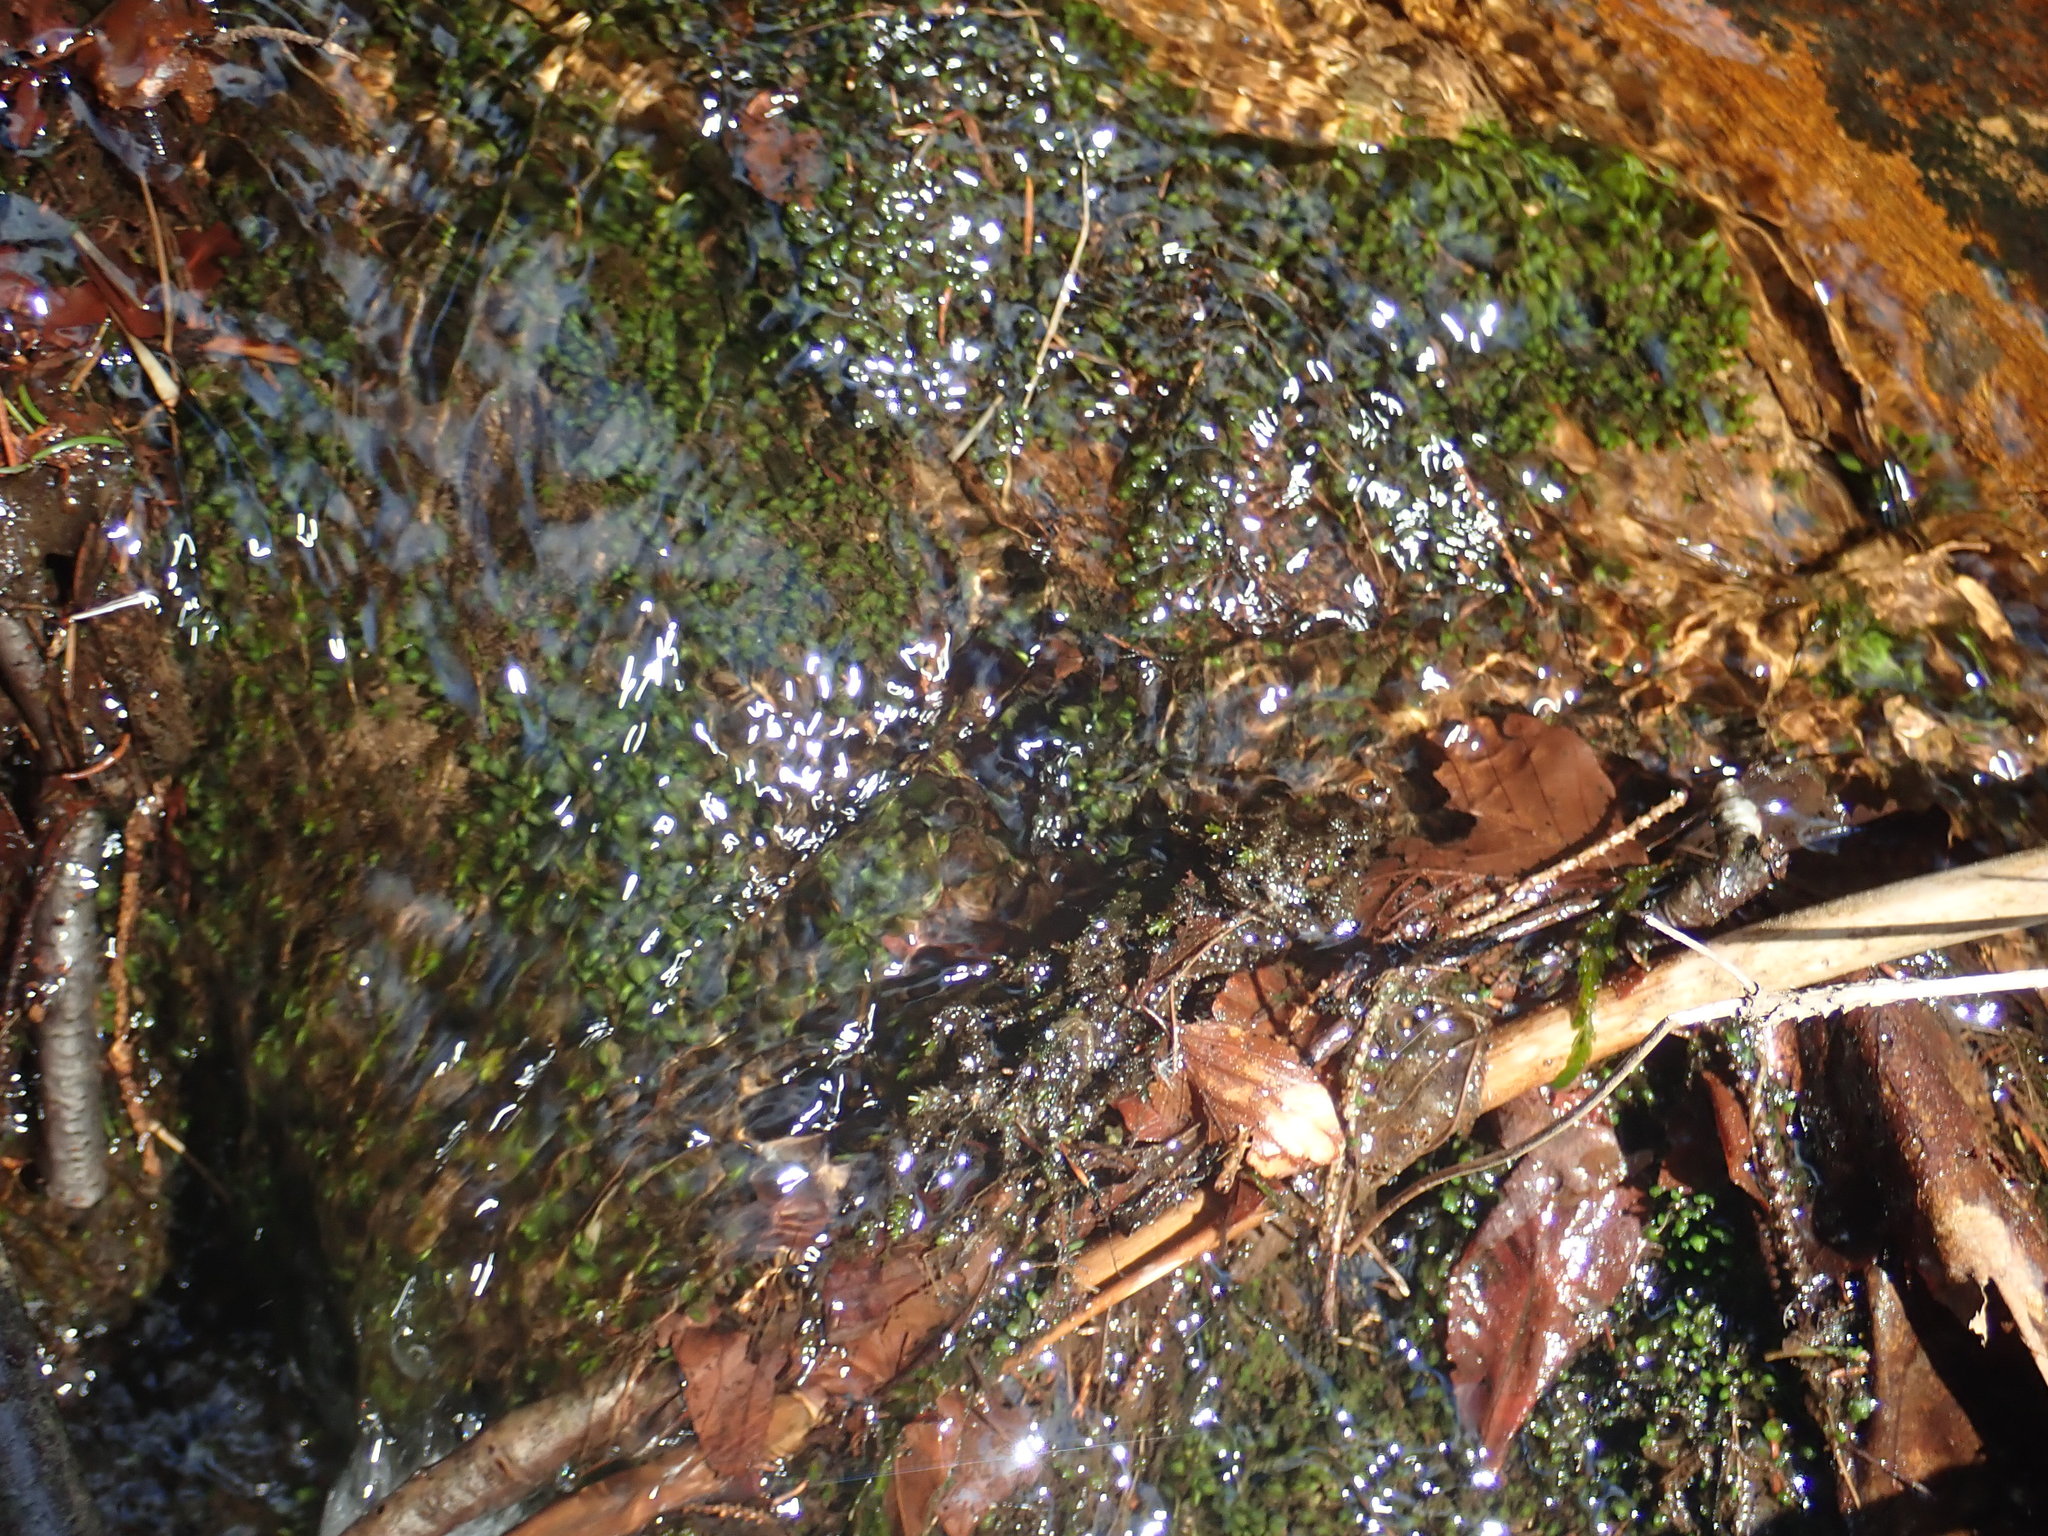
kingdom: Plantae
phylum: Marchantiophyta
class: Jungermanniopsida
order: Jungermanniales
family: Scapaniaceae
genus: Scapania
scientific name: Scapania undulata
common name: Water earwort
